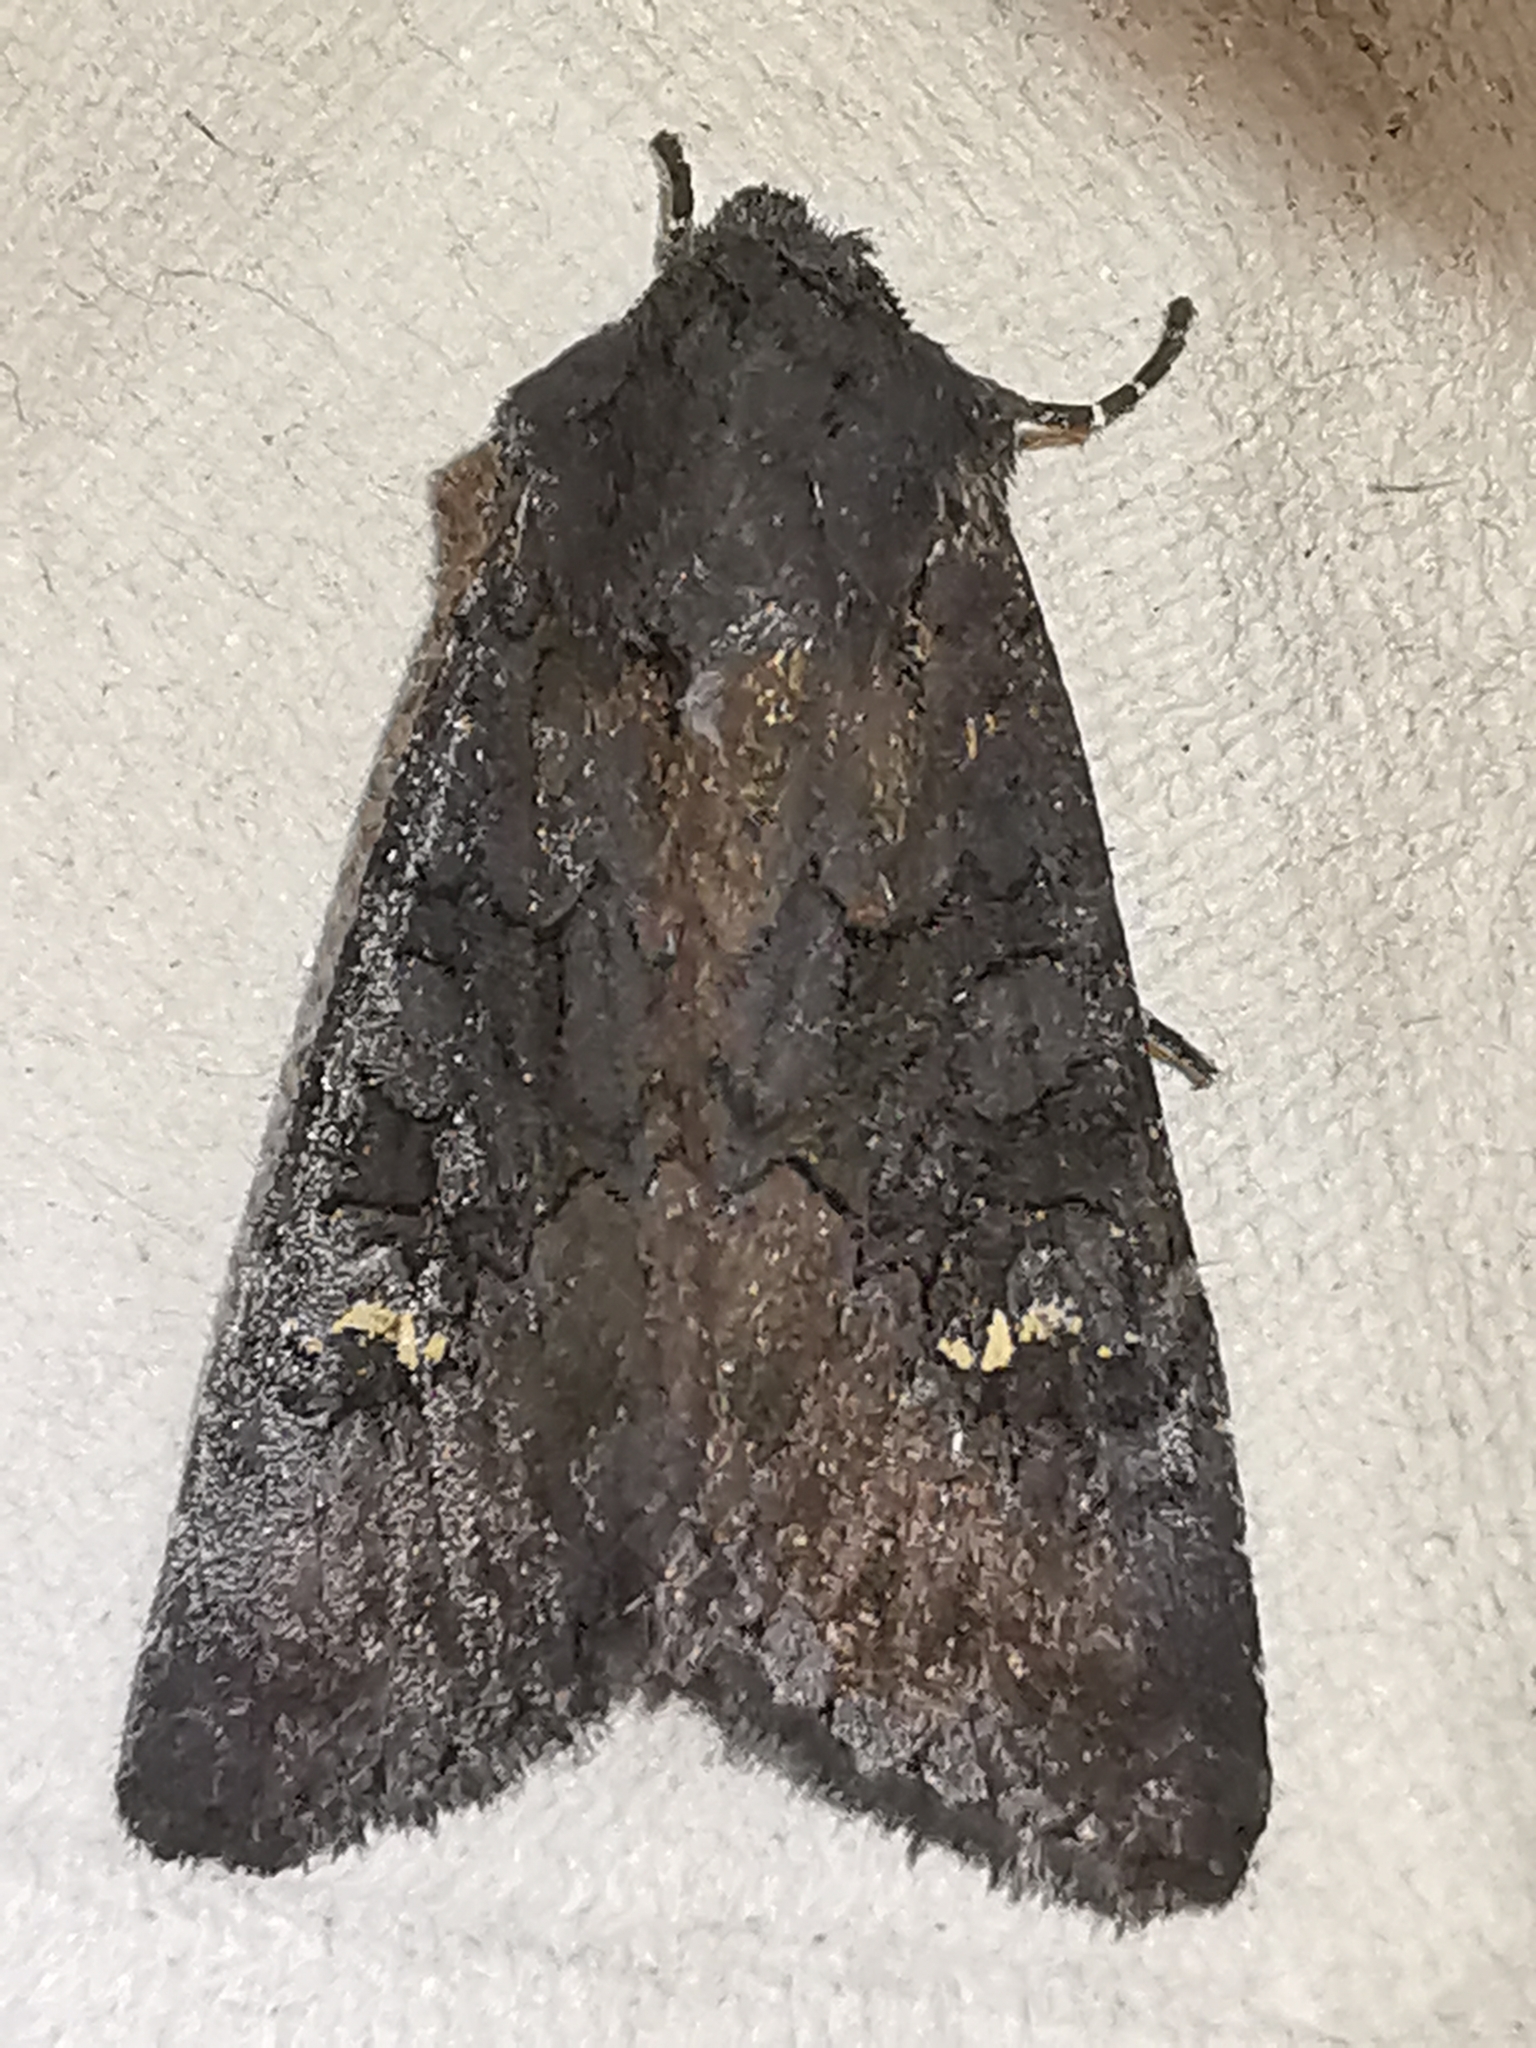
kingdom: Animalia
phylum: Arthropoda
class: Insecta
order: Lepidoptera
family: Noctuidae
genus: Aporophyla
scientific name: Aporophyla nigra
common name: Black rustic
